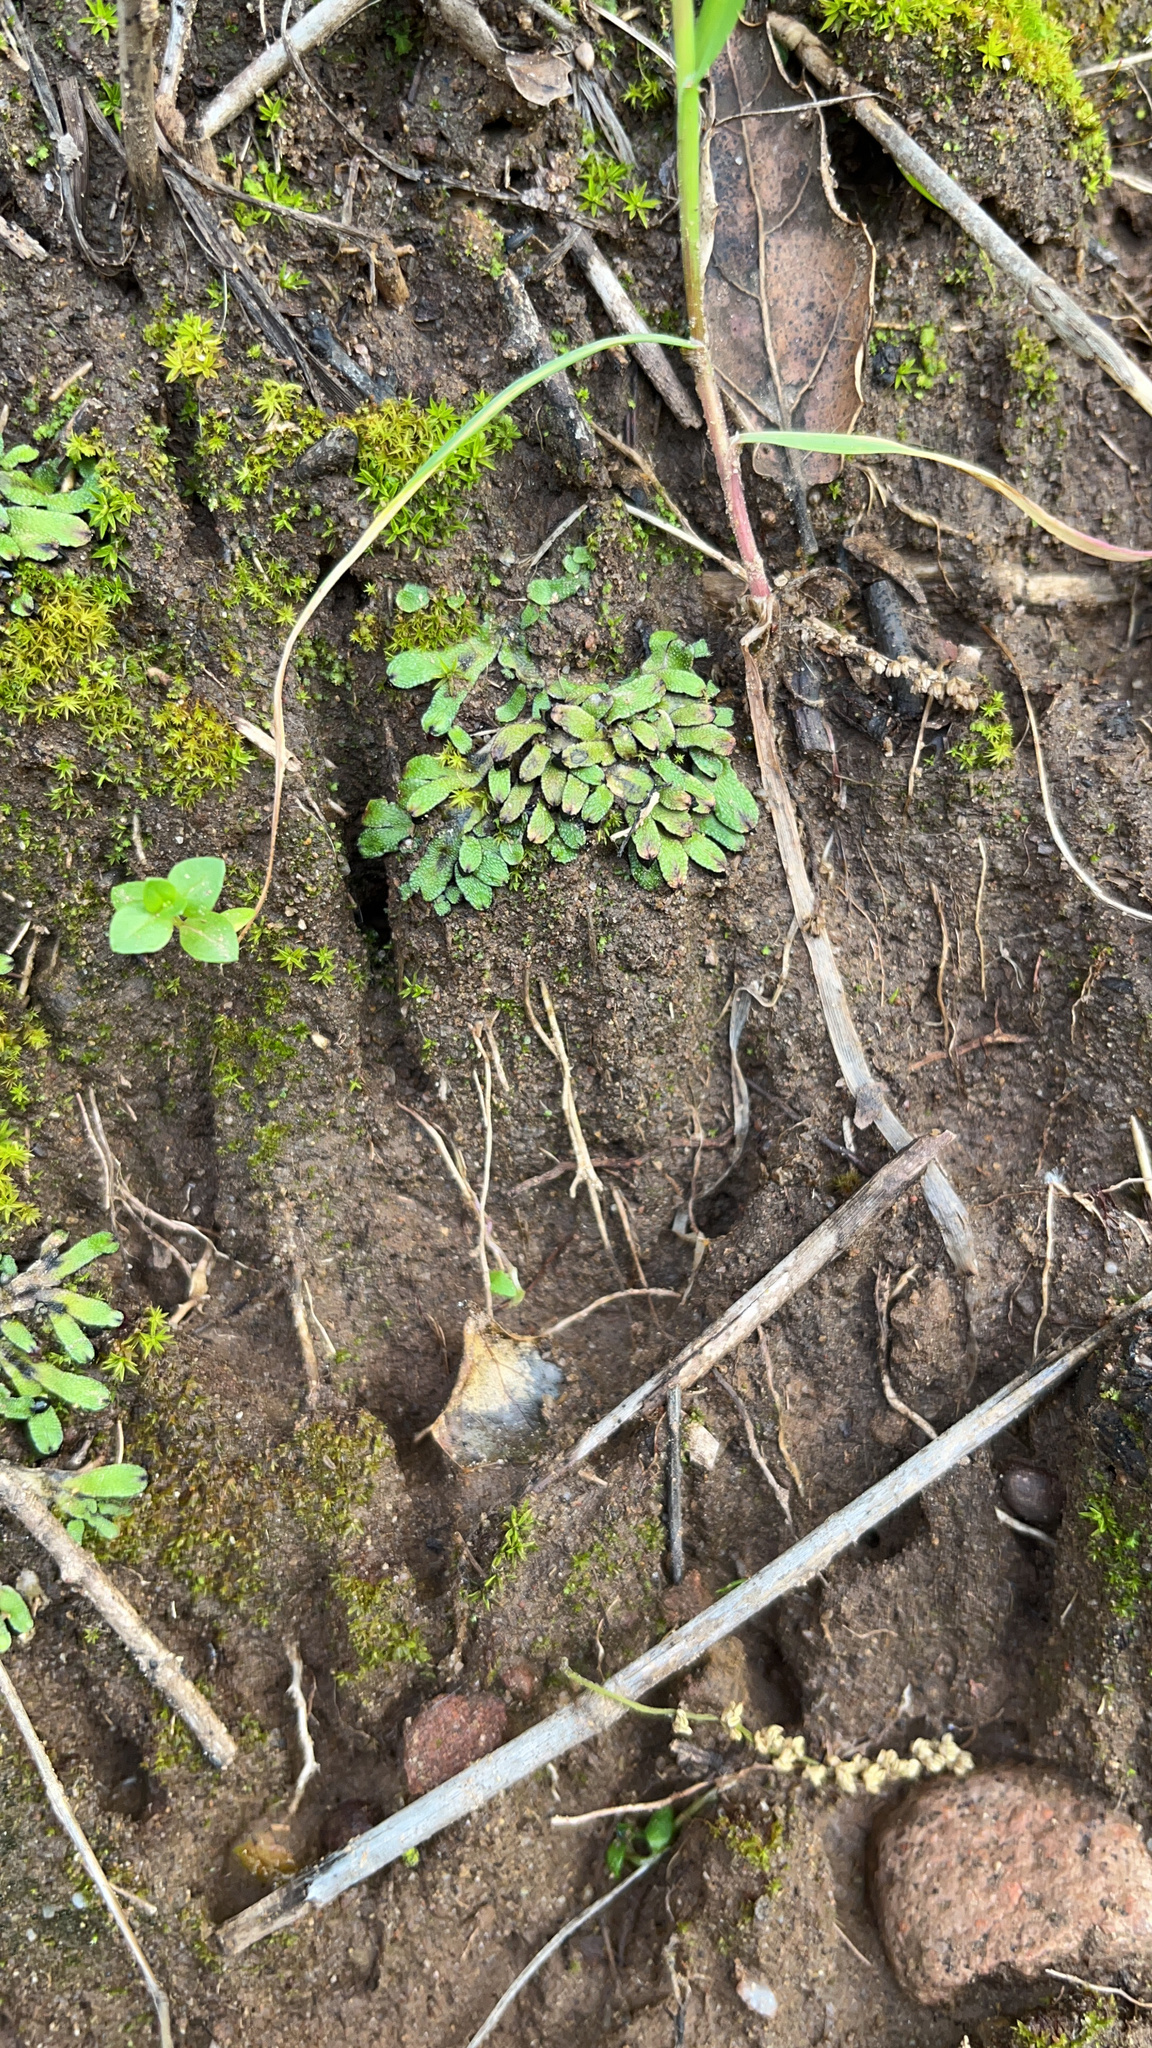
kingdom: Plantae
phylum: Marchantiophyta
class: Marchantiopsida
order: Marchantiales
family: Targioniaceae
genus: Targionia
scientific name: Targionia hypophylla
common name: Orobus-seed liverwort
